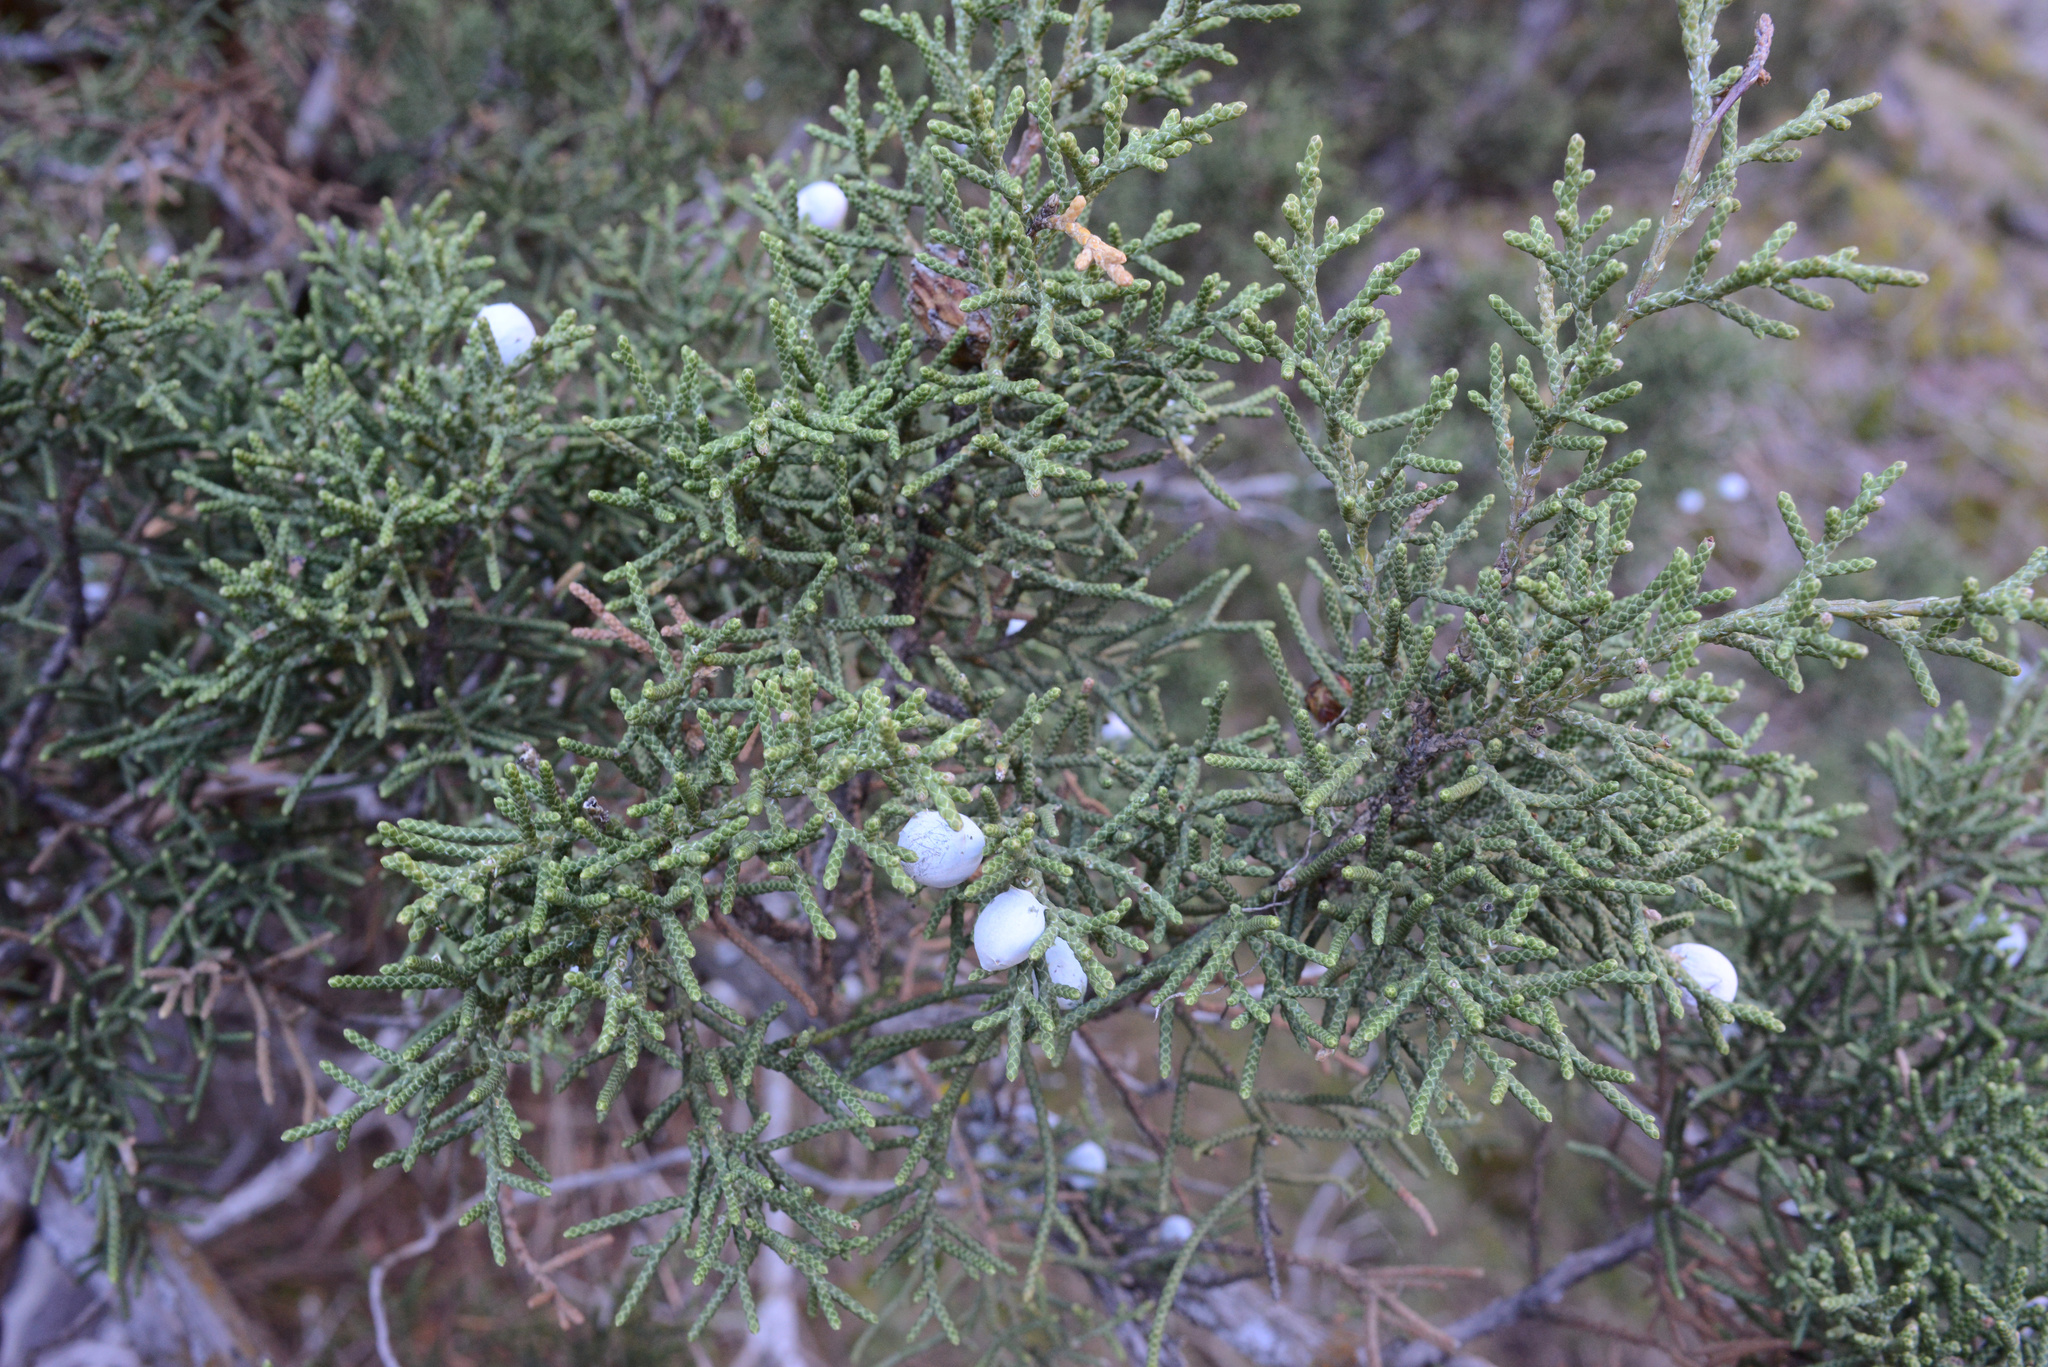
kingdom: Plantae
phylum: Tracheophyta
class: Pinopsida
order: Pinales
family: Cupressaceae
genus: Juniperus
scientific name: Juniperus californica
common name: California juniper
